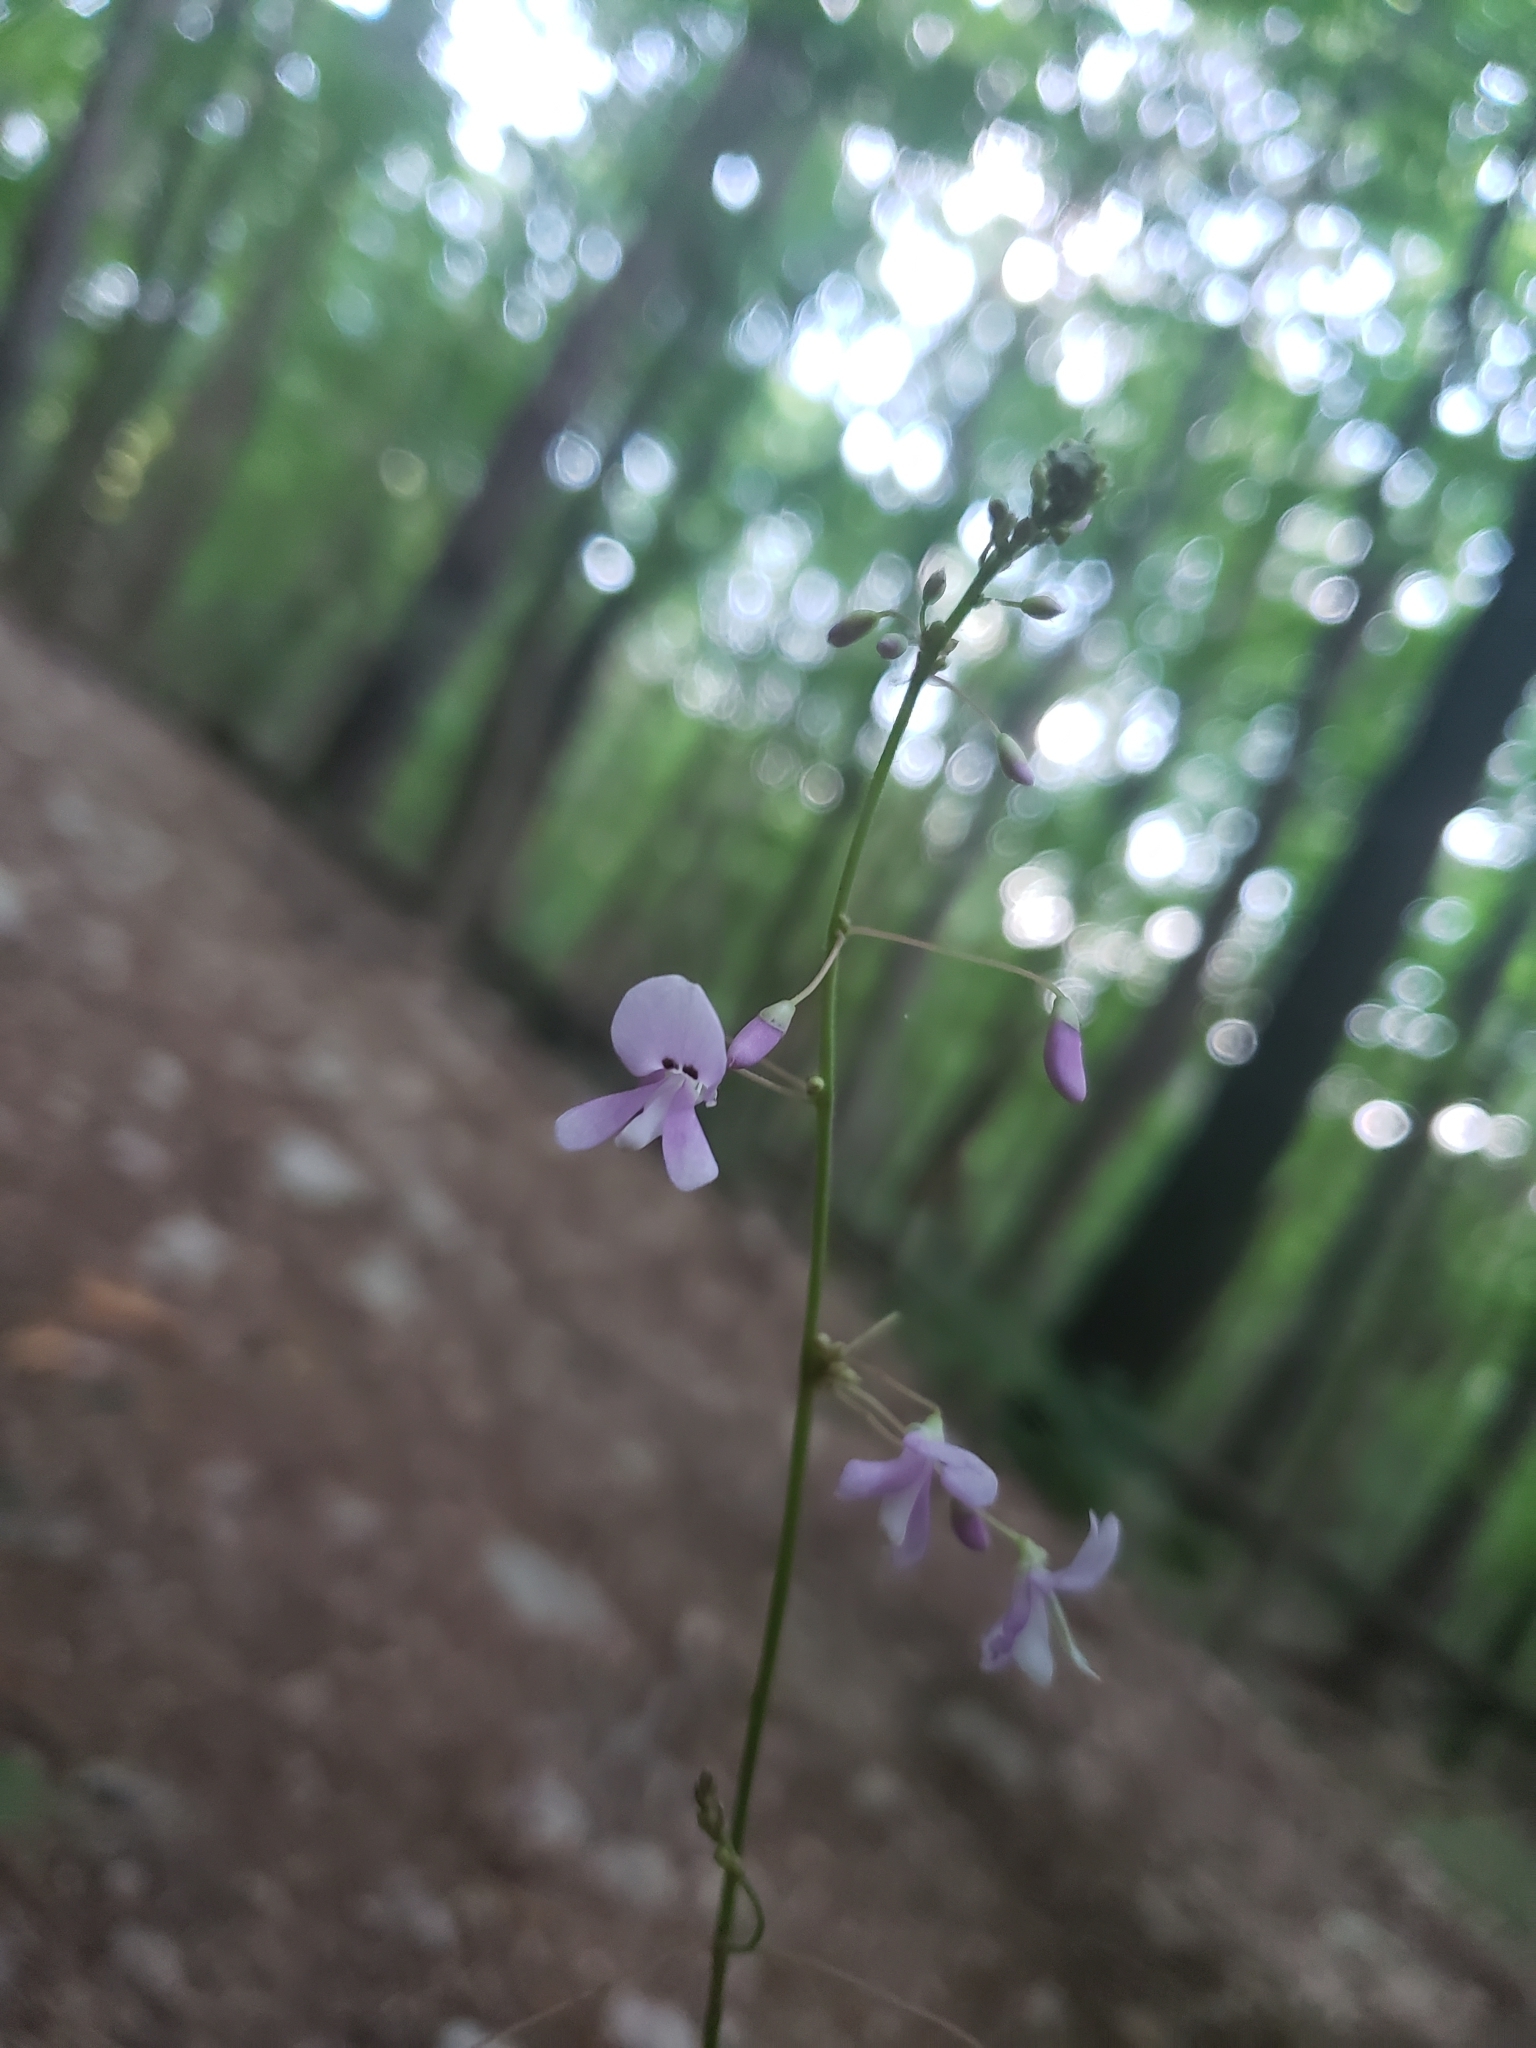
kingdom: Plantae
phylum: Tracheophyta
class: Magnoliopsida
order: Fabales
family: Fabaceae
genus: Hylodesmum
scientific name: Hylodesmum nudiflorum
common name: Bare-stemmed tick-trefoil
